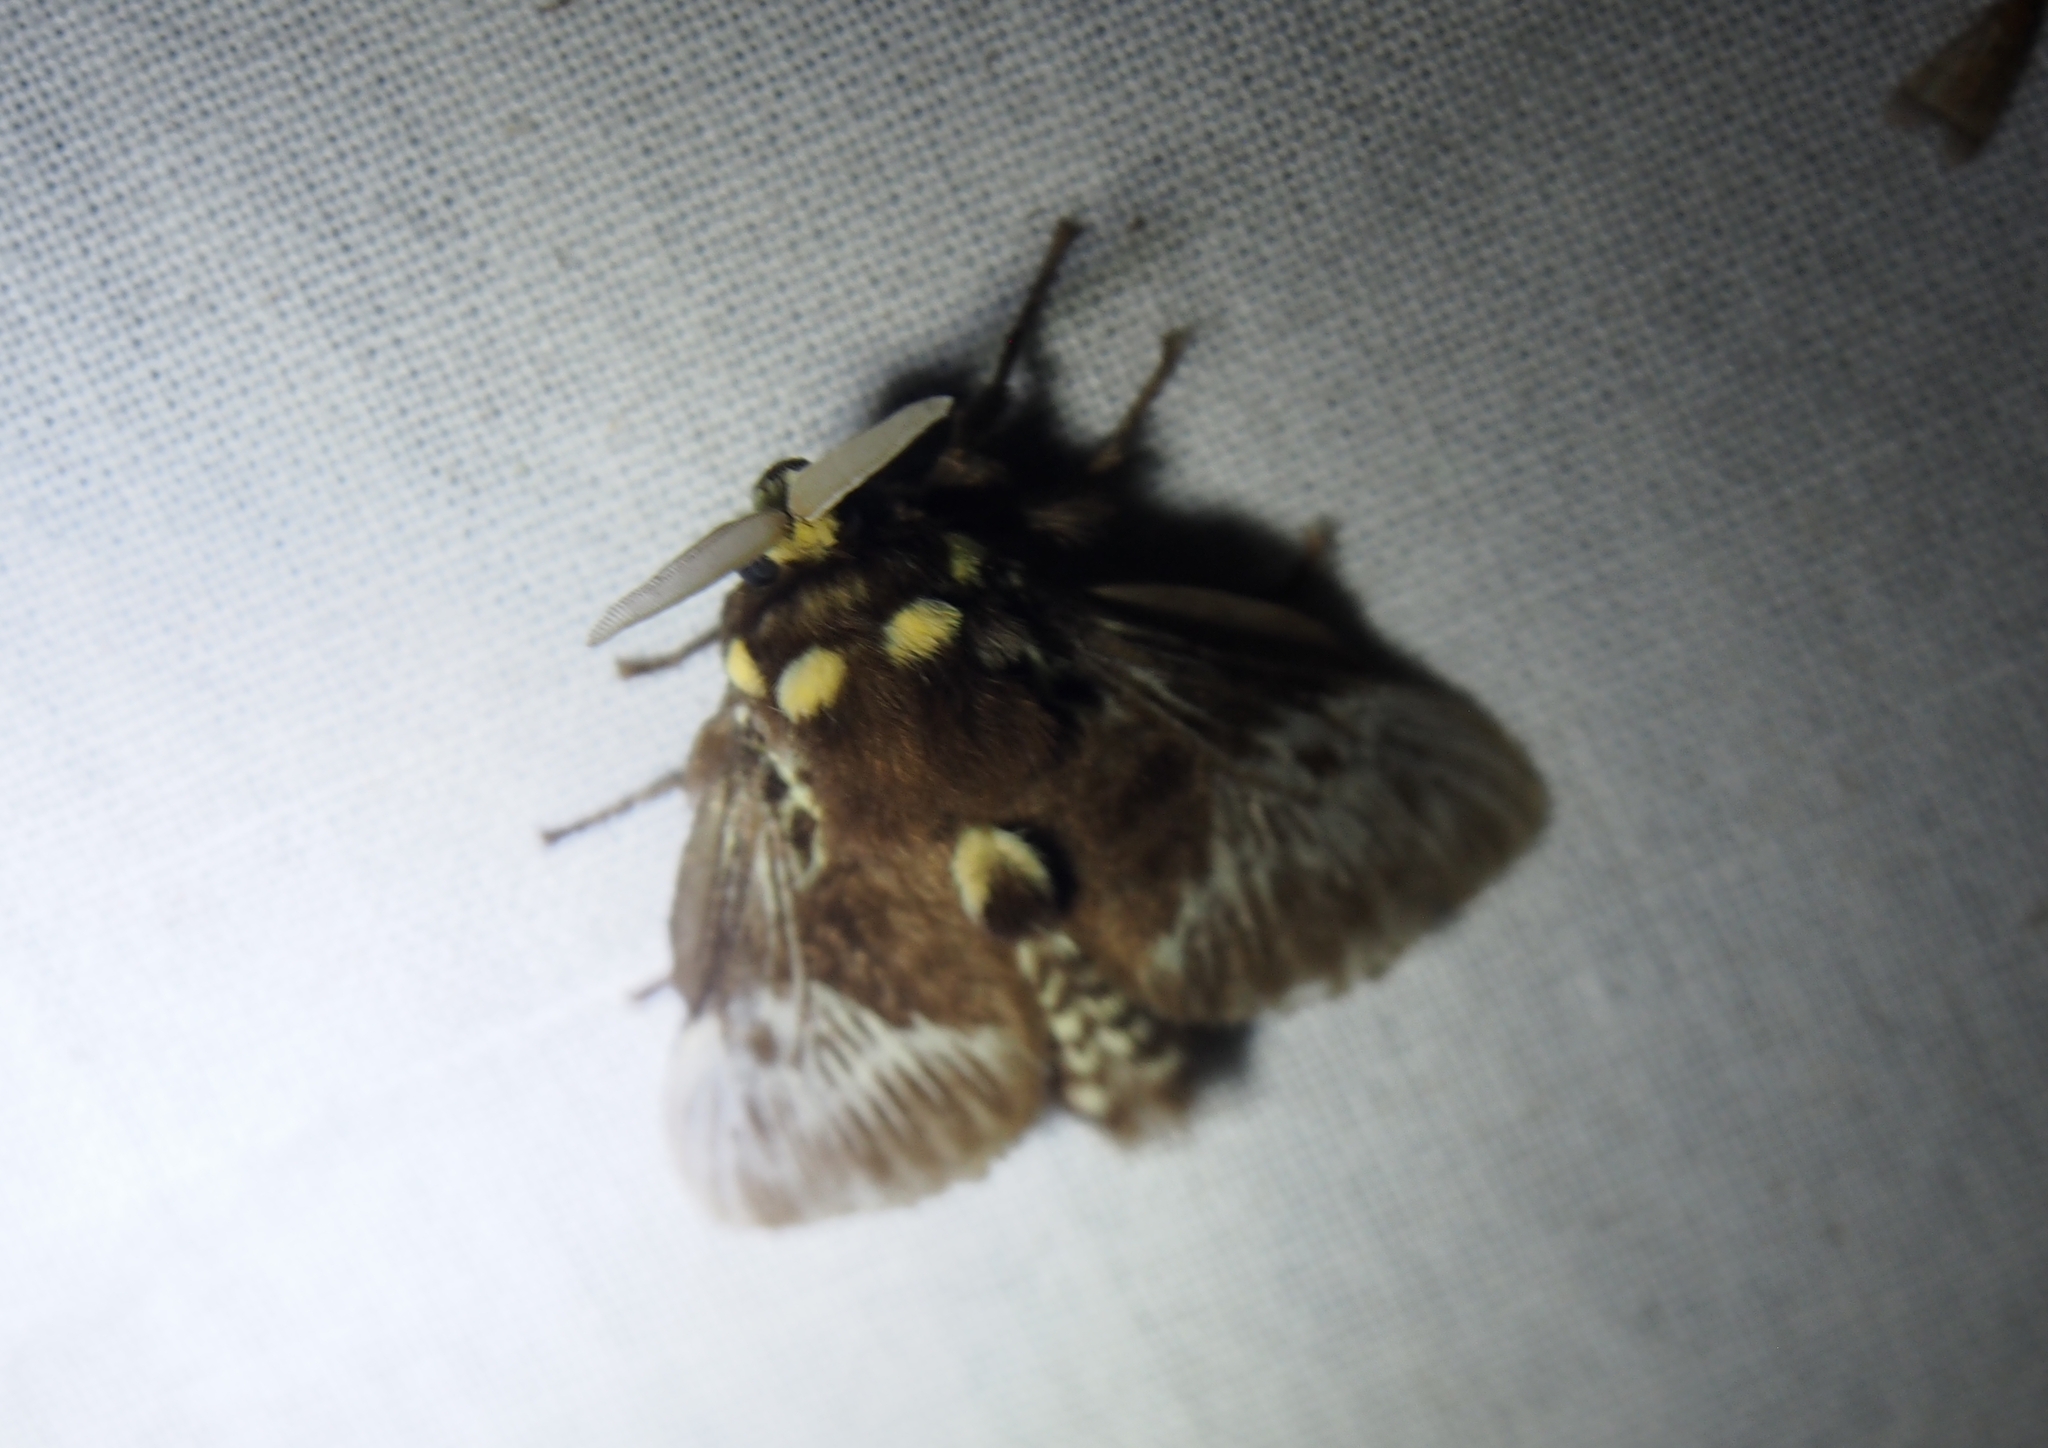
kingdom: Animalia
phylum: Arthropoda
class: Insecta
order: Lepidoptera
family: Megalopygidae
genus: Megalopyge
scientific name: Megalopyge albicollis
